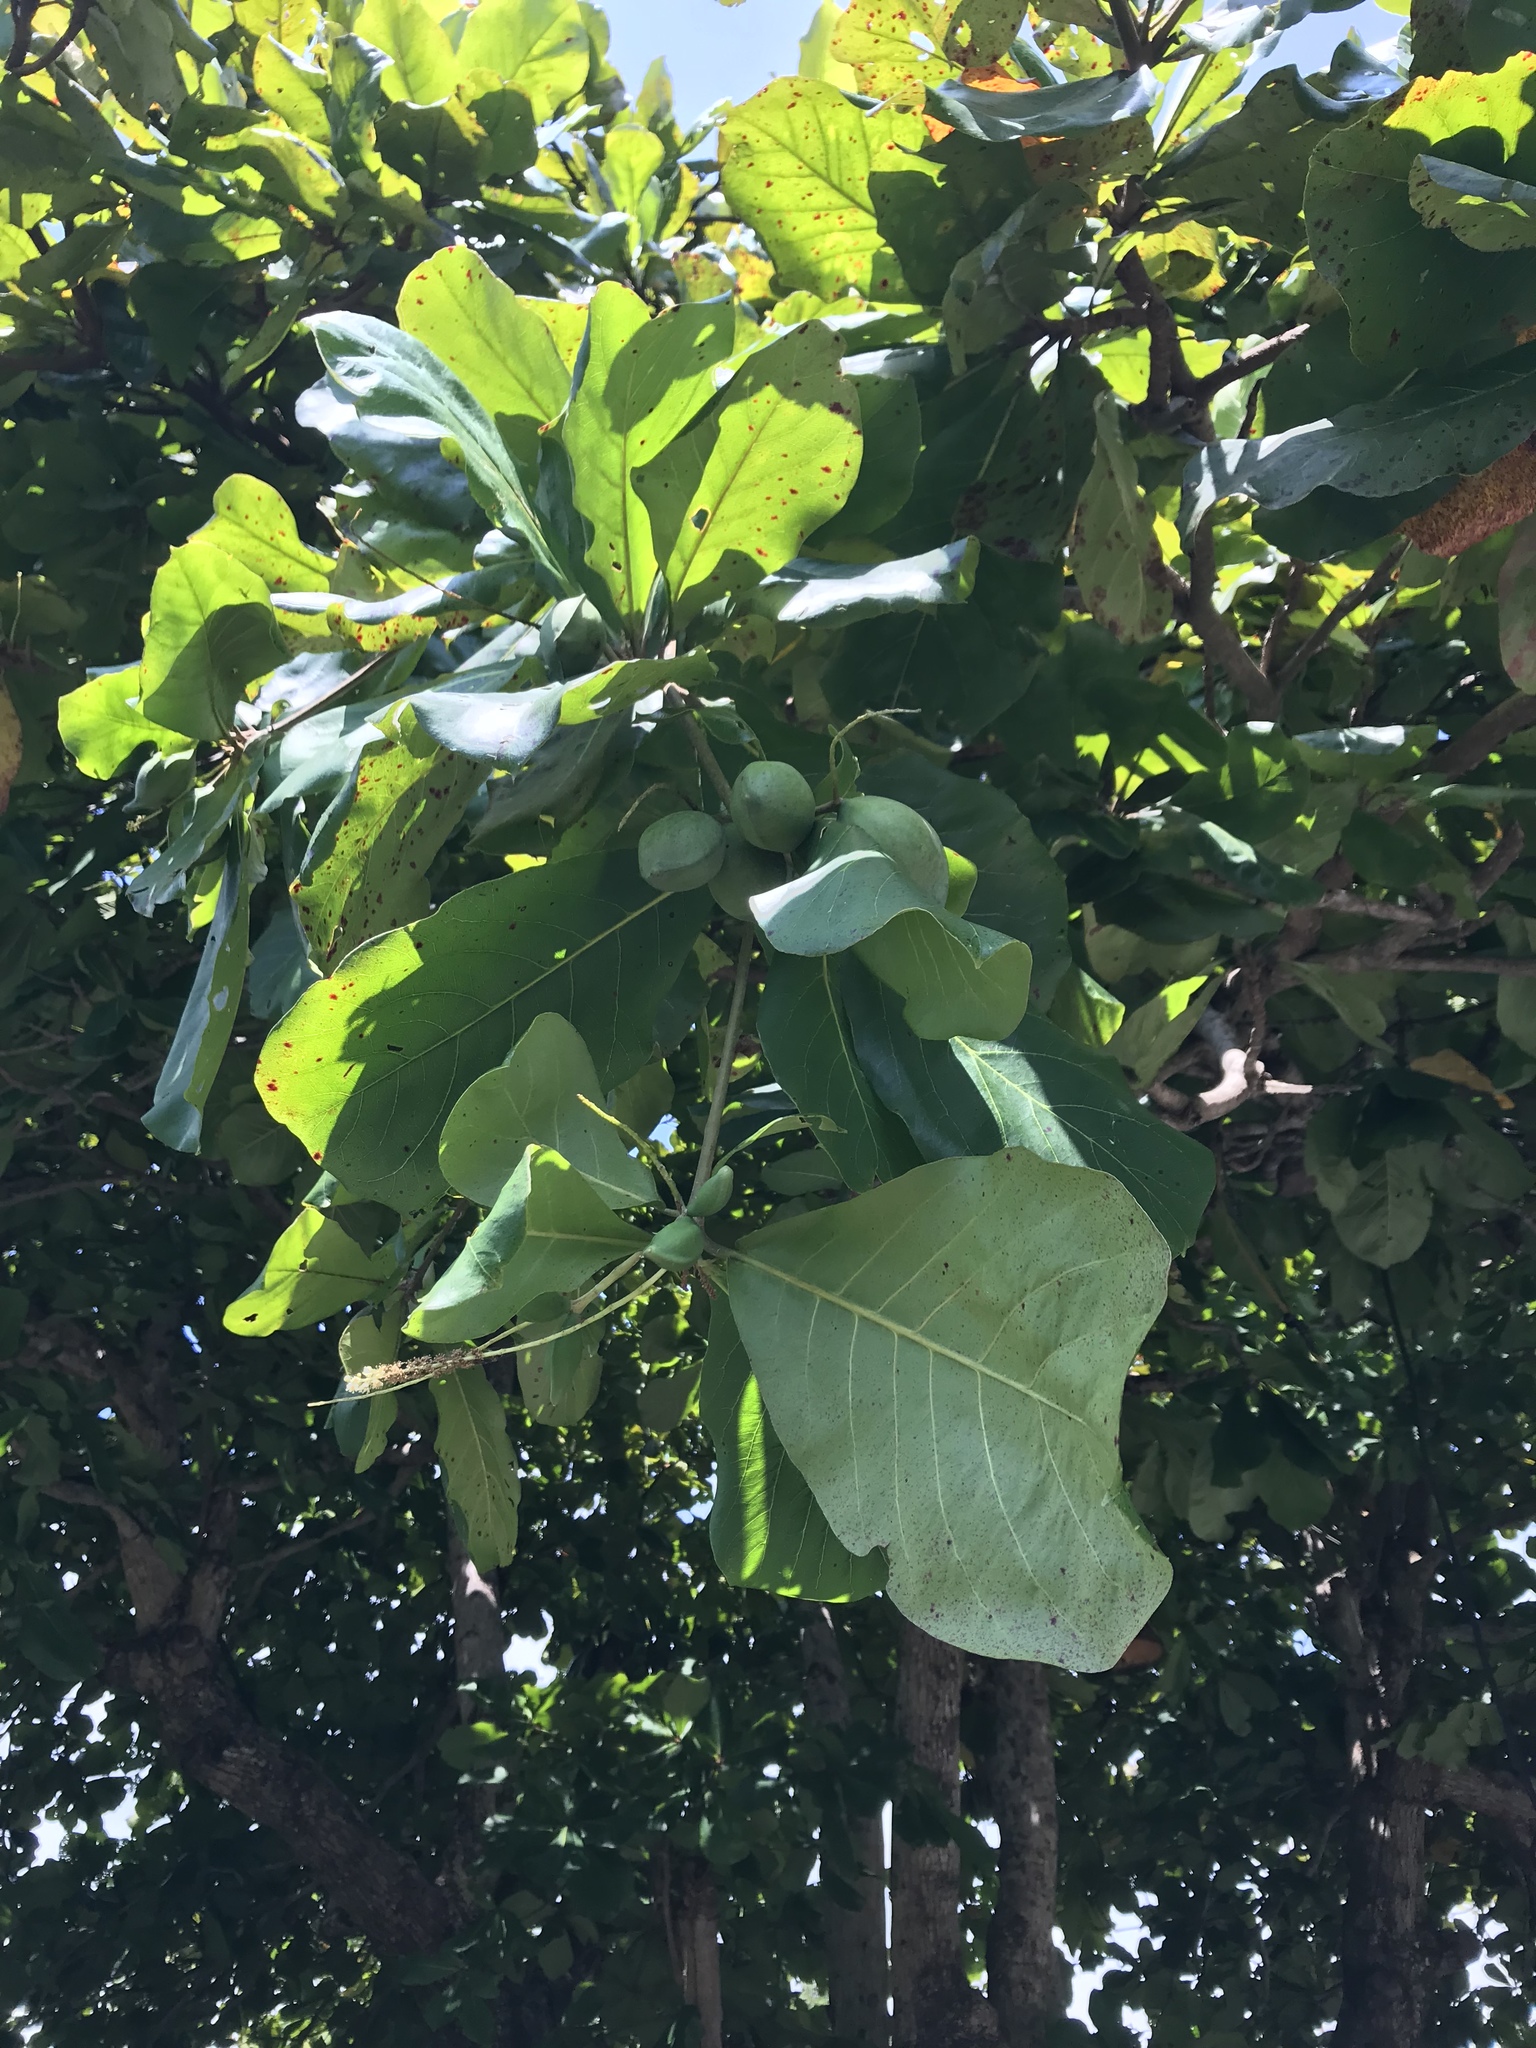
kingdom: Plantae
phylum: Tracheophyta
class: Magnoliopsida
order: Myrtales
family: Combretaceae
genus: Terminalia
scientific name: Terminalia catappa
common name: Tropical almond
